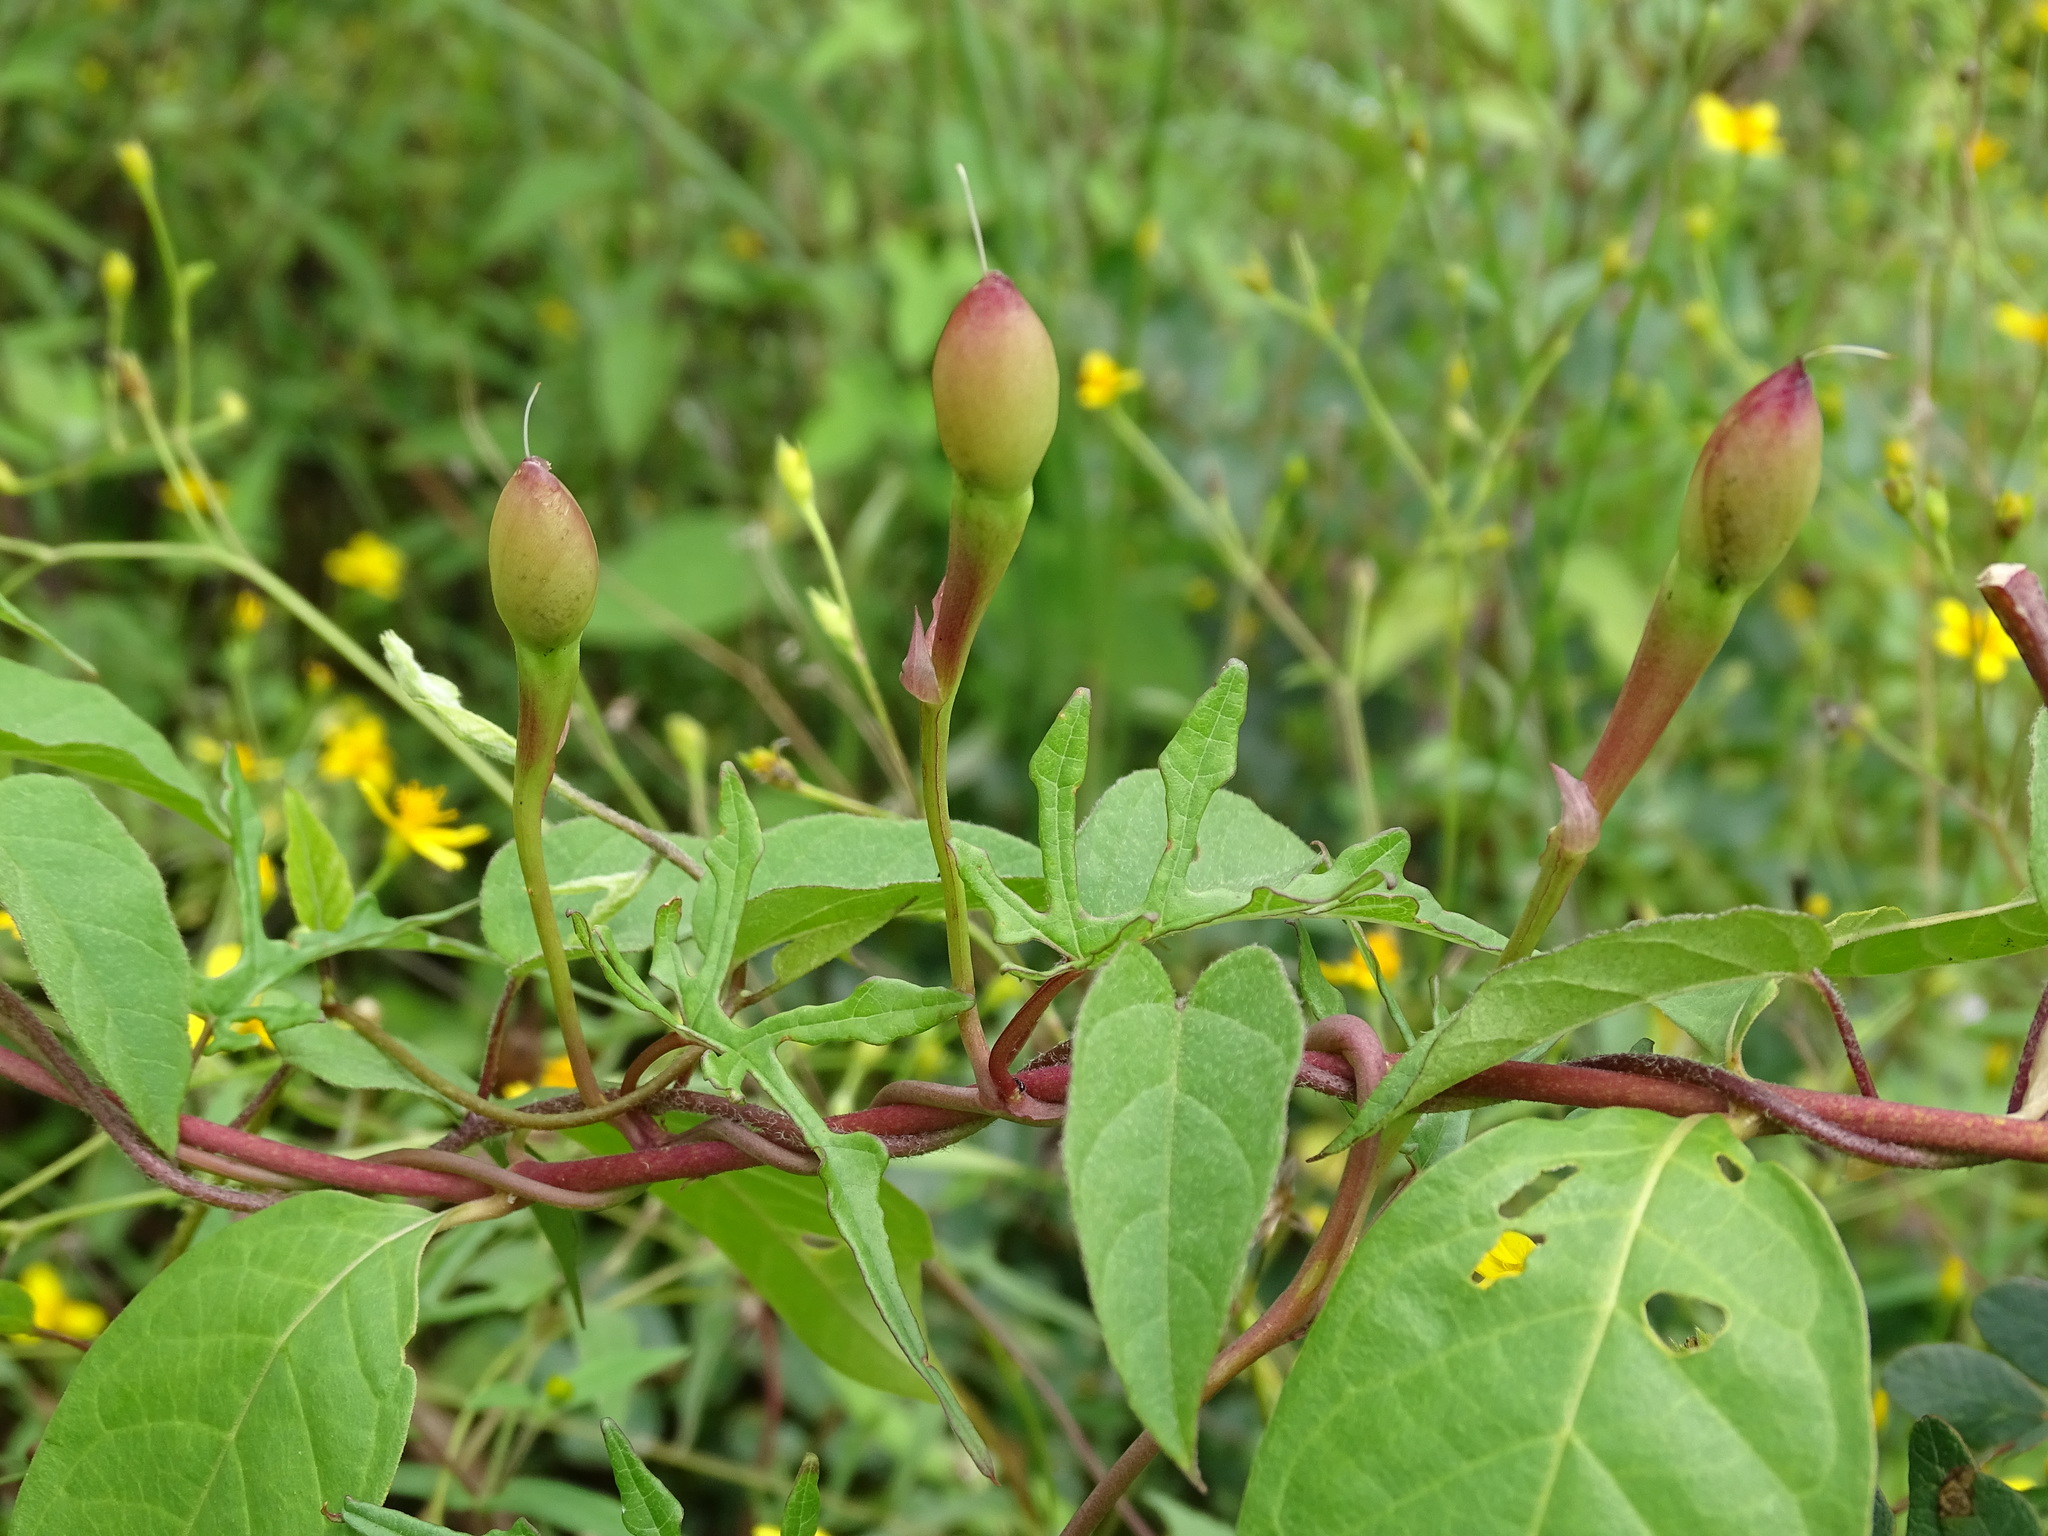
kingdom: Plantae
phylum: Tracheophyta
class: Magnoliopsida
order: Solanales
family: Convolvulaceae
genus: Operculina
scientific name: Operculina pinnatifida
